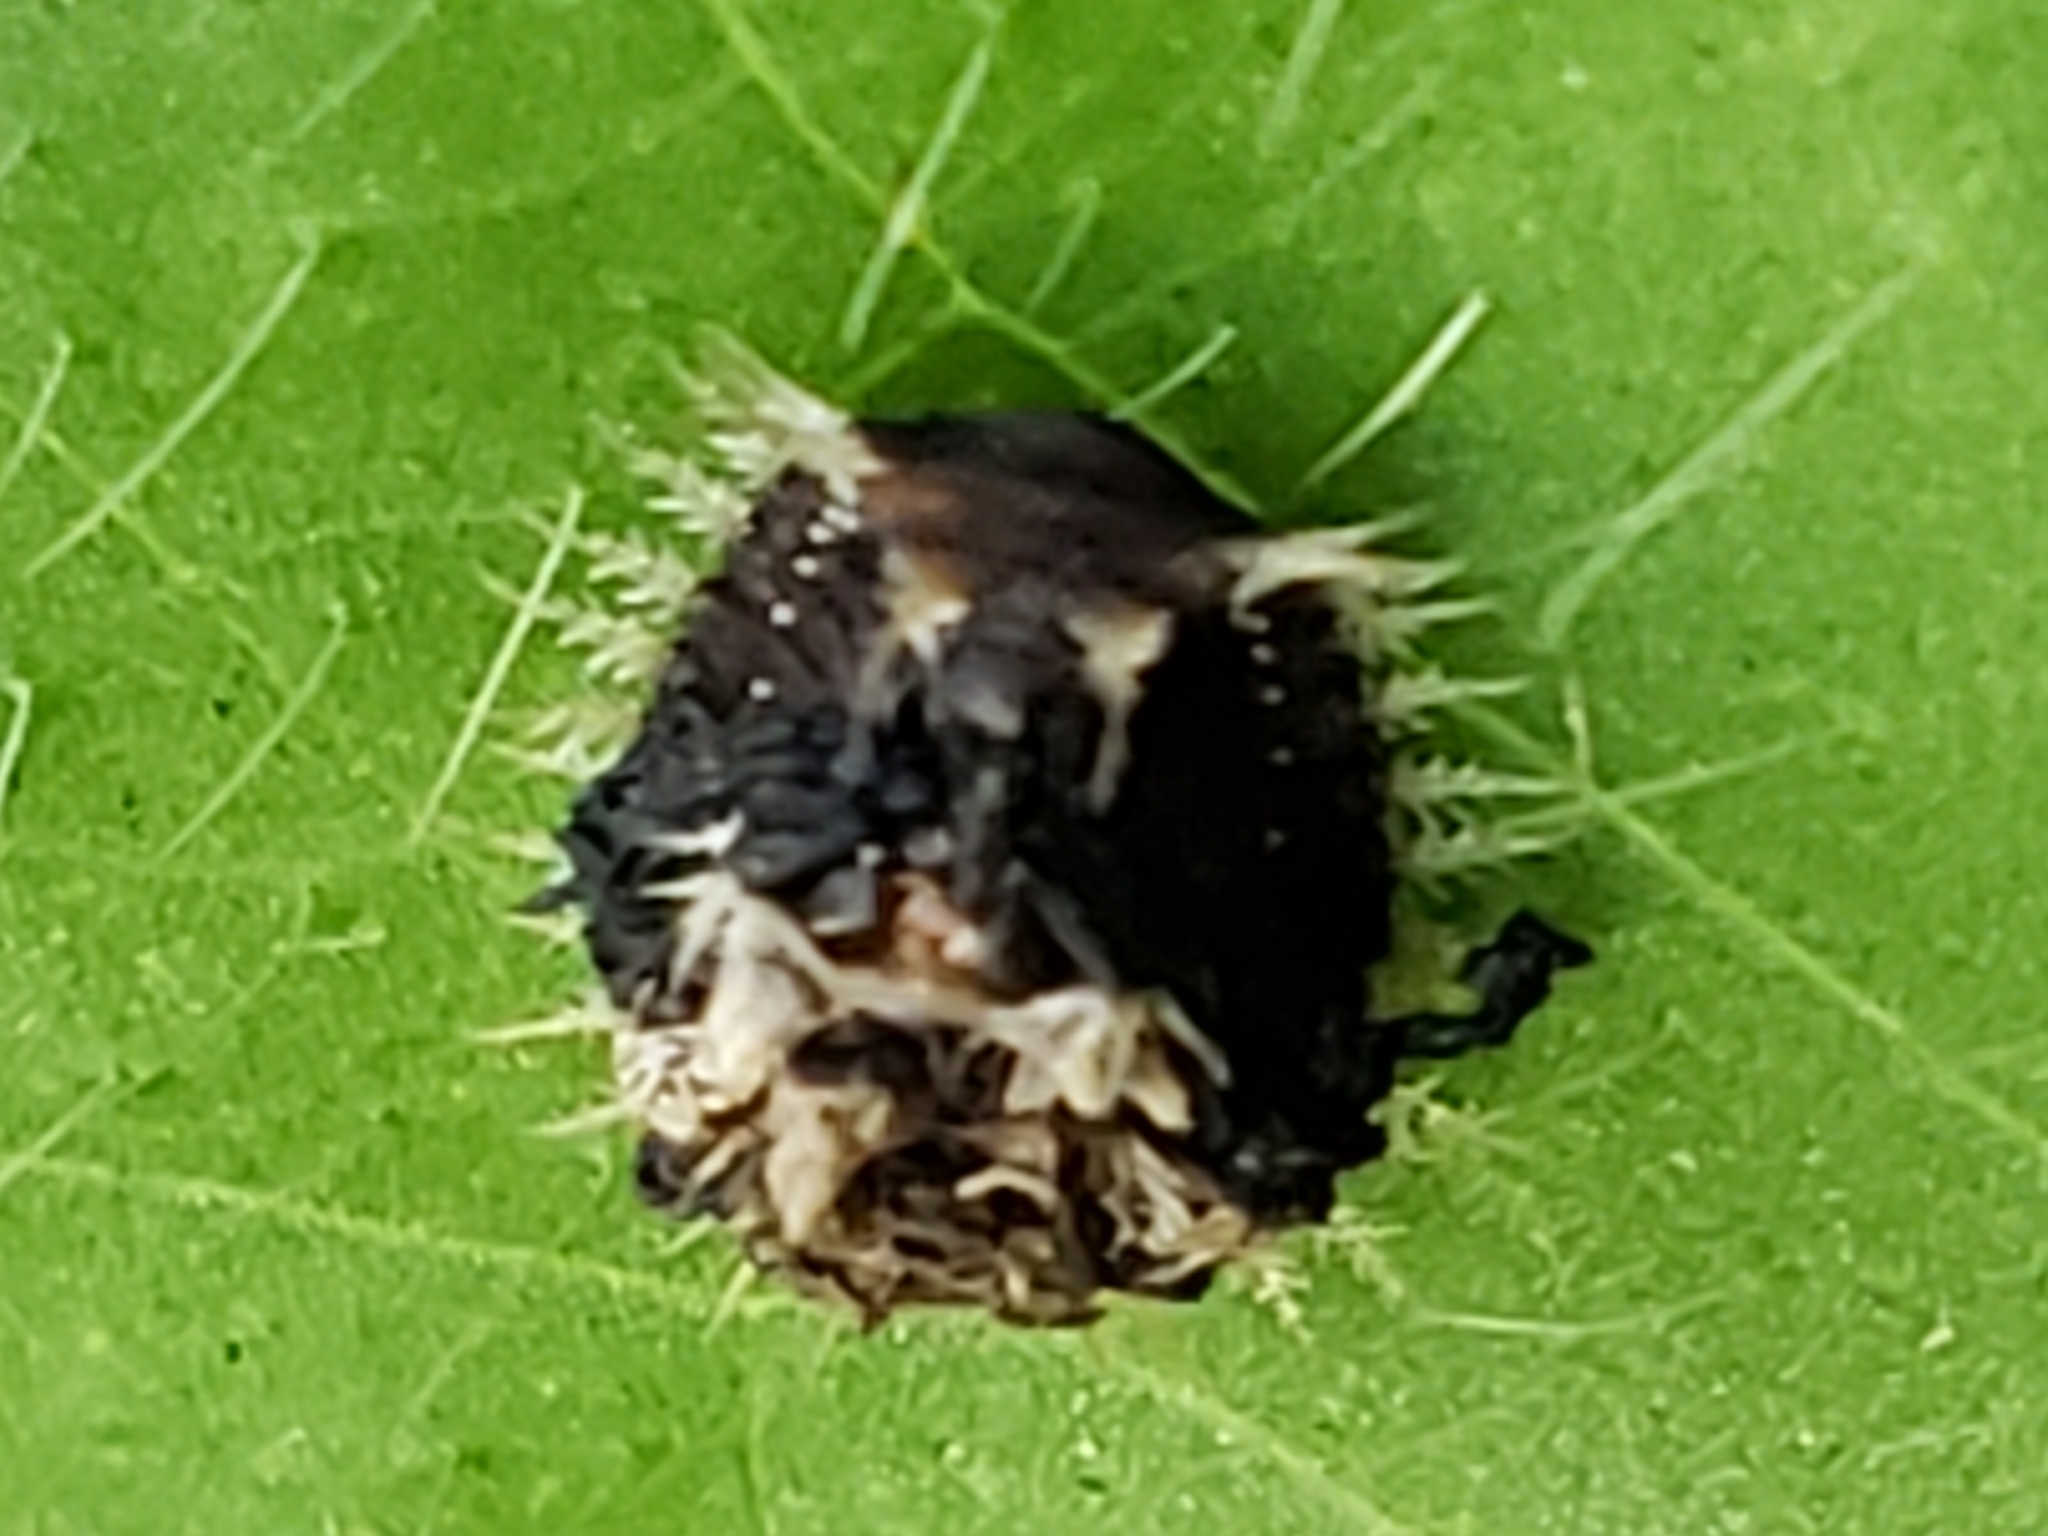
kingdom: Animalia
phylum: Arthropoda
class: Insecta
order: Coleoptera
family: Chrysomelidae
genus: Charidotella
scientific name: Charidotella sexpunctata
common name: Golden tortoise beetle
